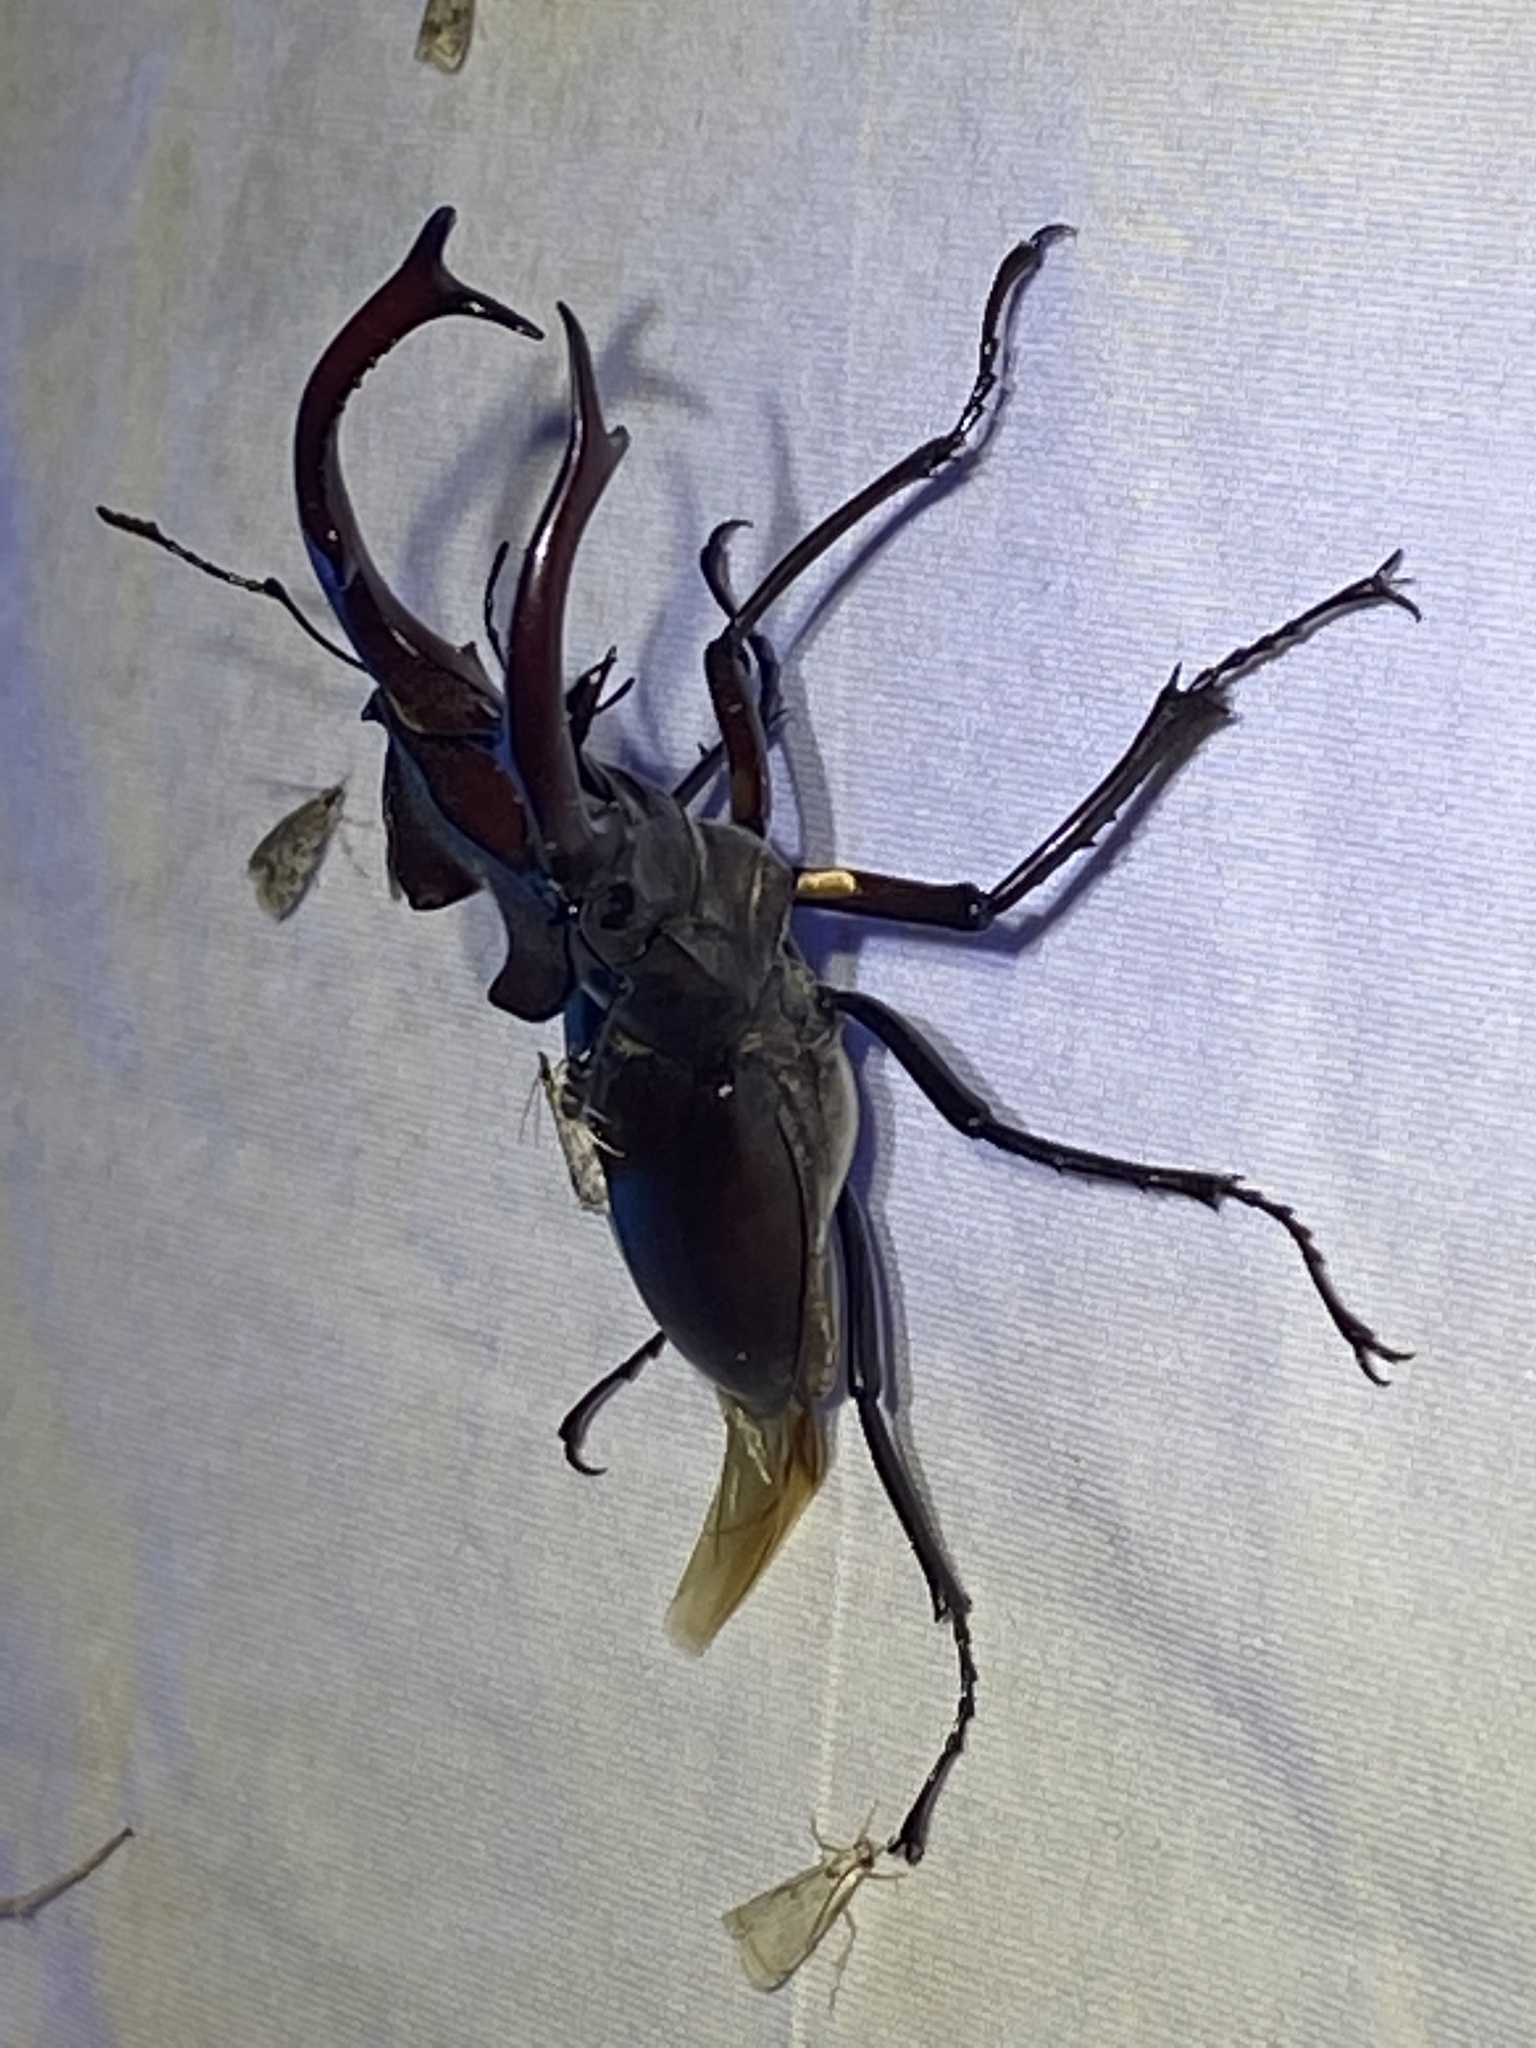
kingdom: Animalia
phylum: Arthropoda
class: Insecta
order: Coleoptera
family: Lucanidae
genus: Lucanus
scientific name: Lucanus elaphus
